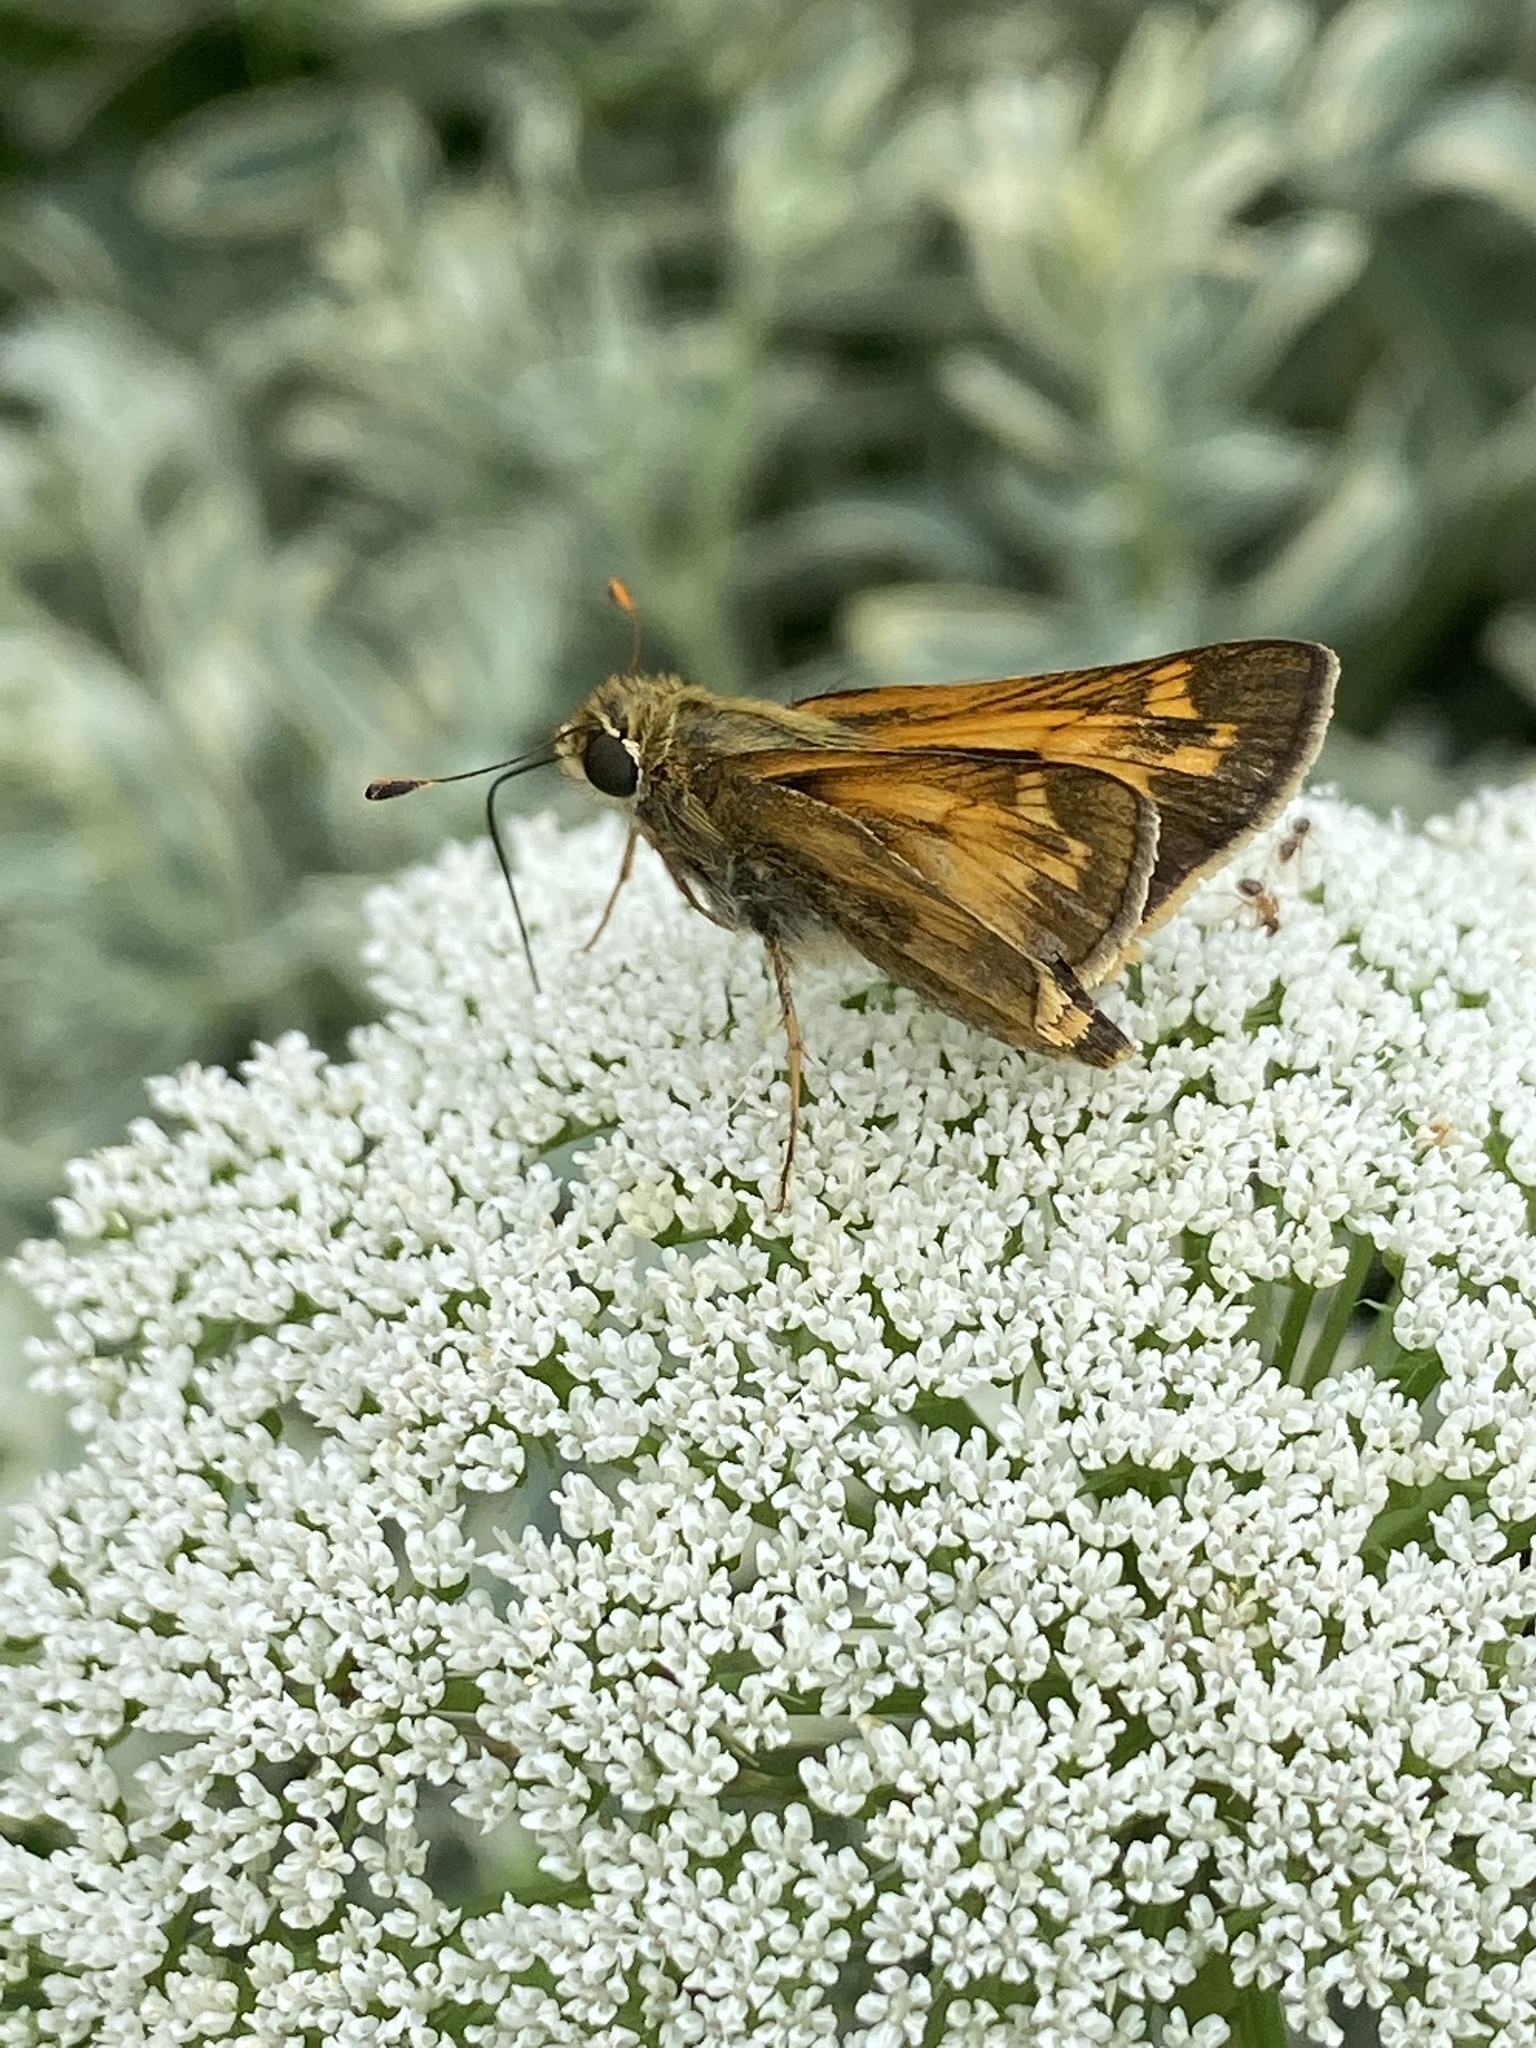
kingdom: Animalia
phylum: Arthropoda
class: Insecta
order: Lepidoptera
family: Hesperiidae
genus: Atalopedes
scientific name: Atalopedes
